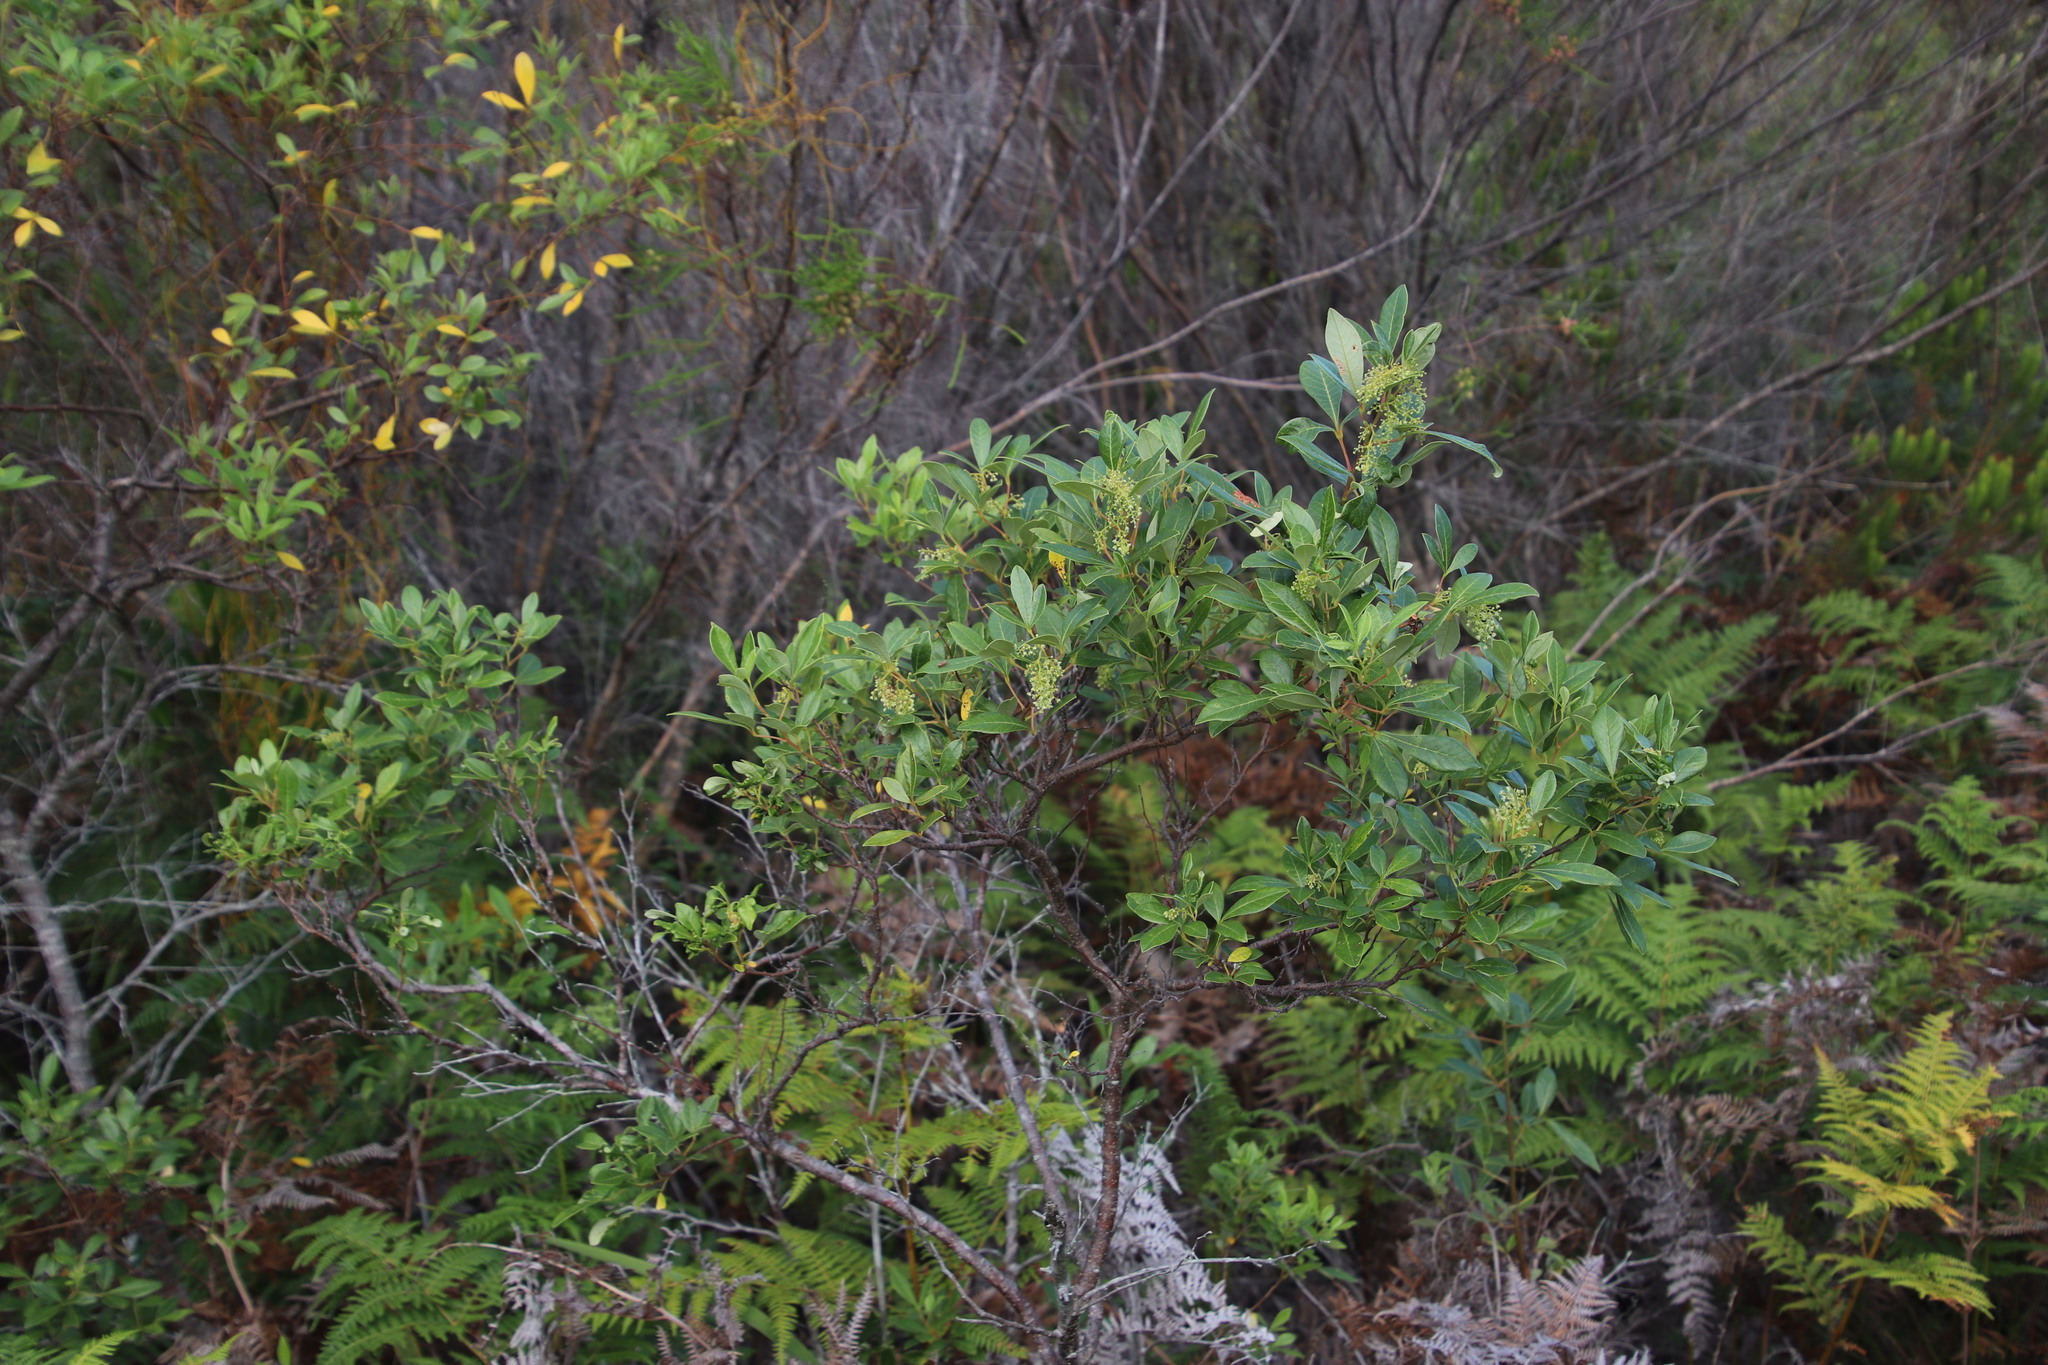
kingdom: Plantae
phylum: Tracheophyta
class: Magnoliopsida
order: Sapindales
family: Anacardiaceae
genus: Searsia
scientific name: Searsia tomentosa
